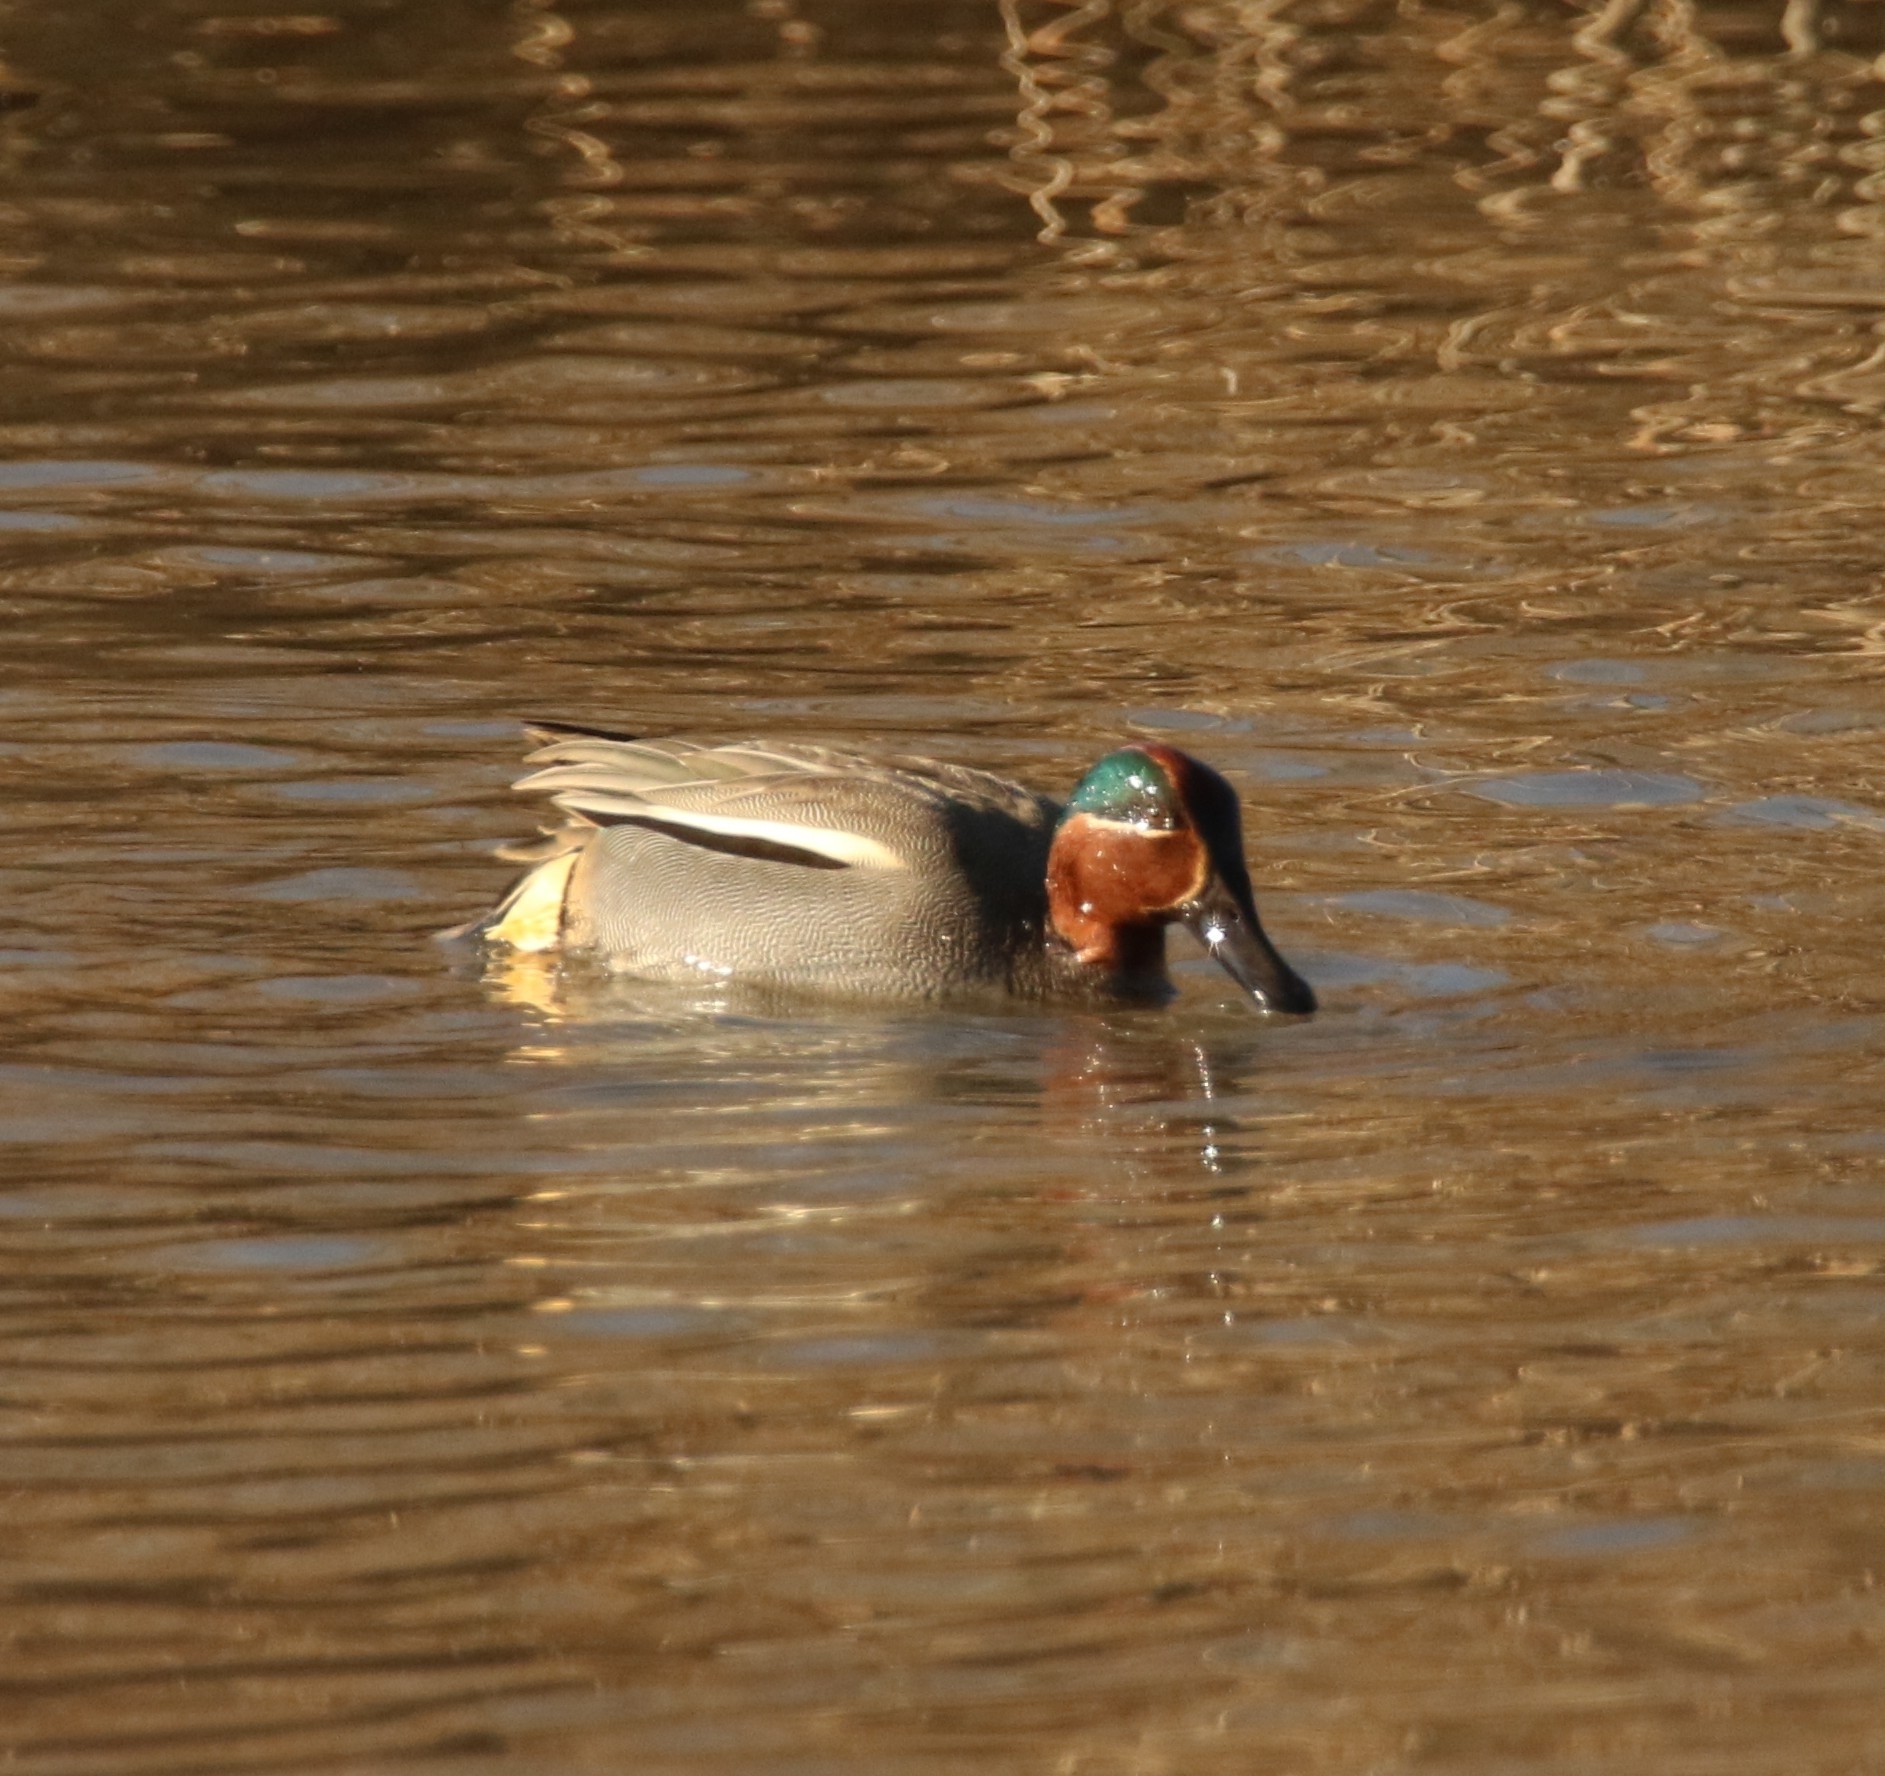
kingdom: Animalia
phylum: Chordata
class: Aves
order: Anseriformes
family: Anatidae
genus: Anas
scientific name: Anas crecca
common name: Eurasian teal
